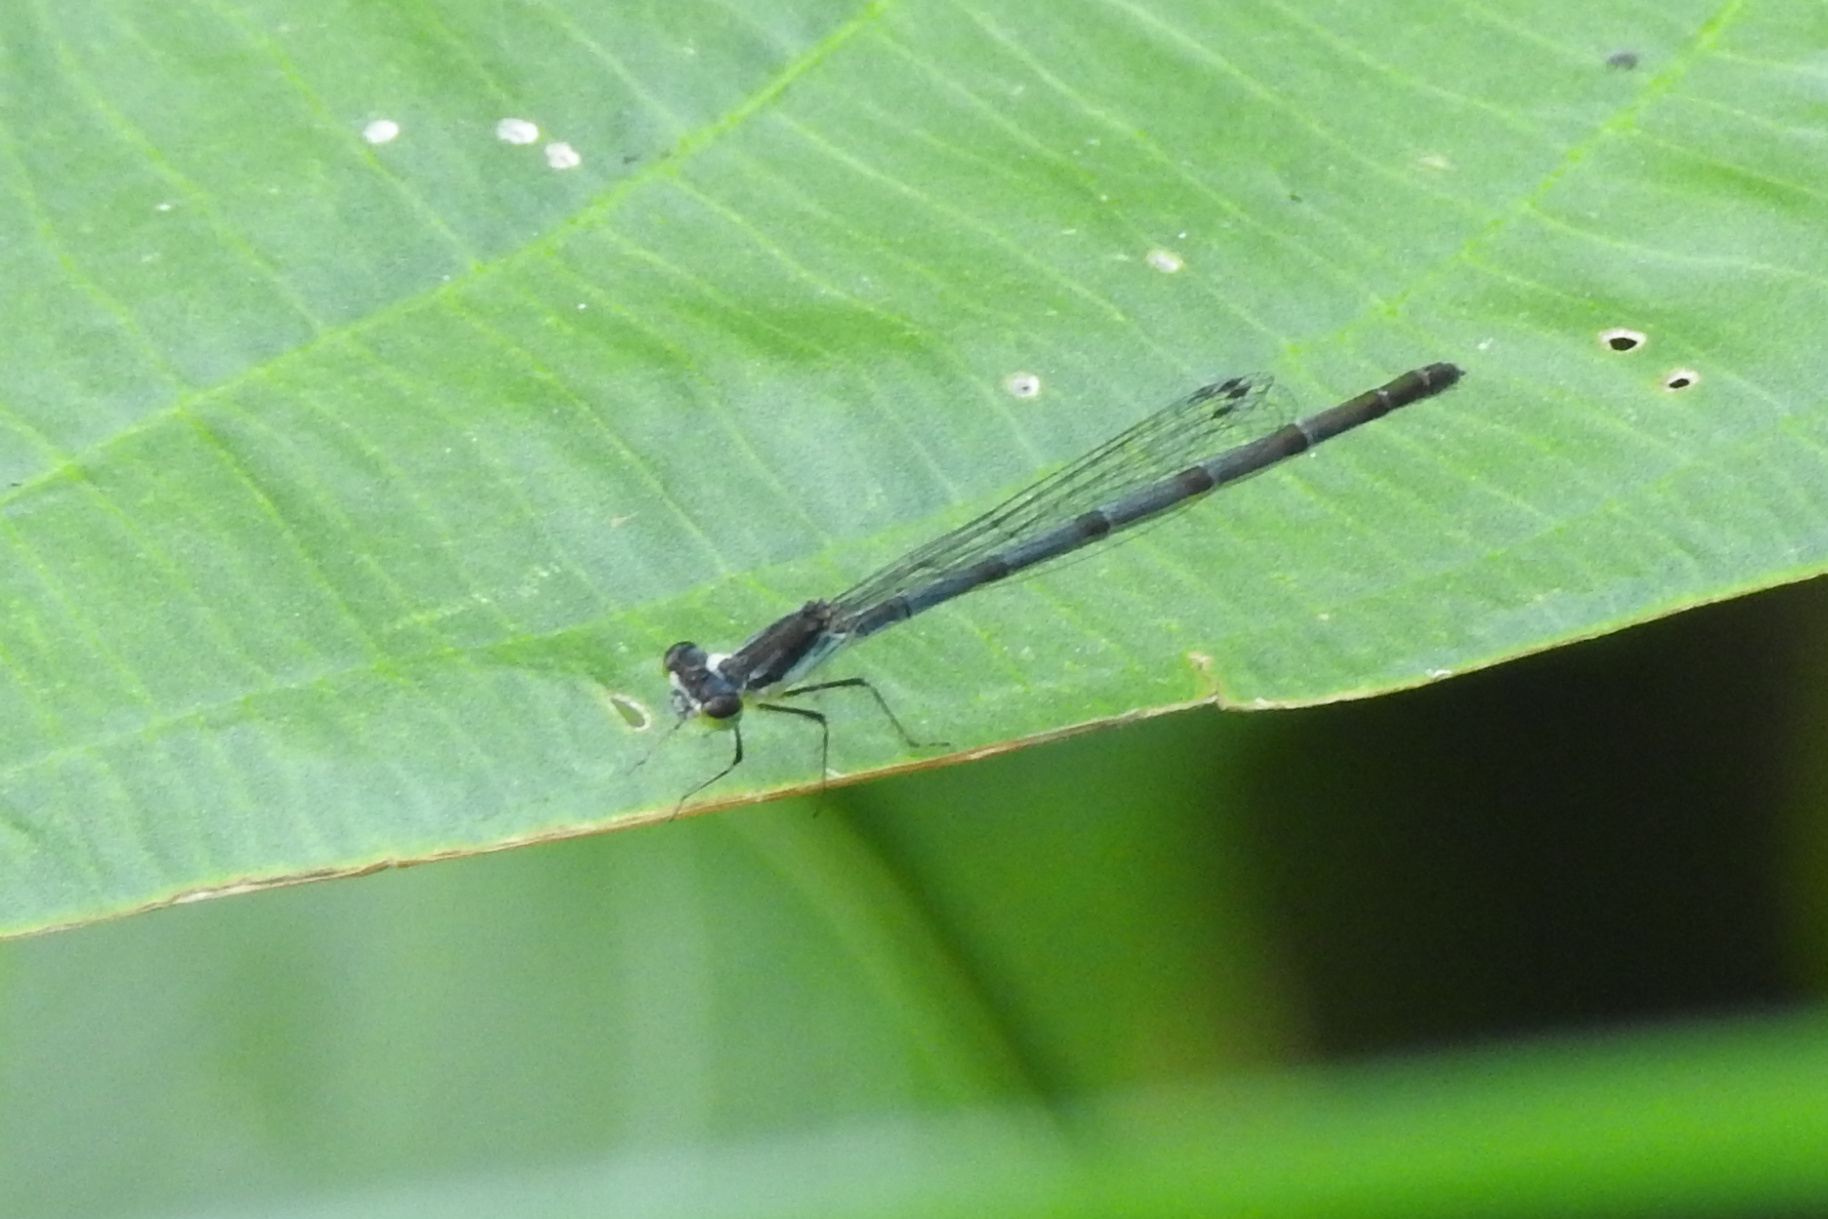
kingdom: Animalia
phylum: Arthropoda
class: Insecta
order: Odonata
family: Coenagrionidae
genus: Ischnura
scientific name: Ischnura posita
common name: Fragile forktail
